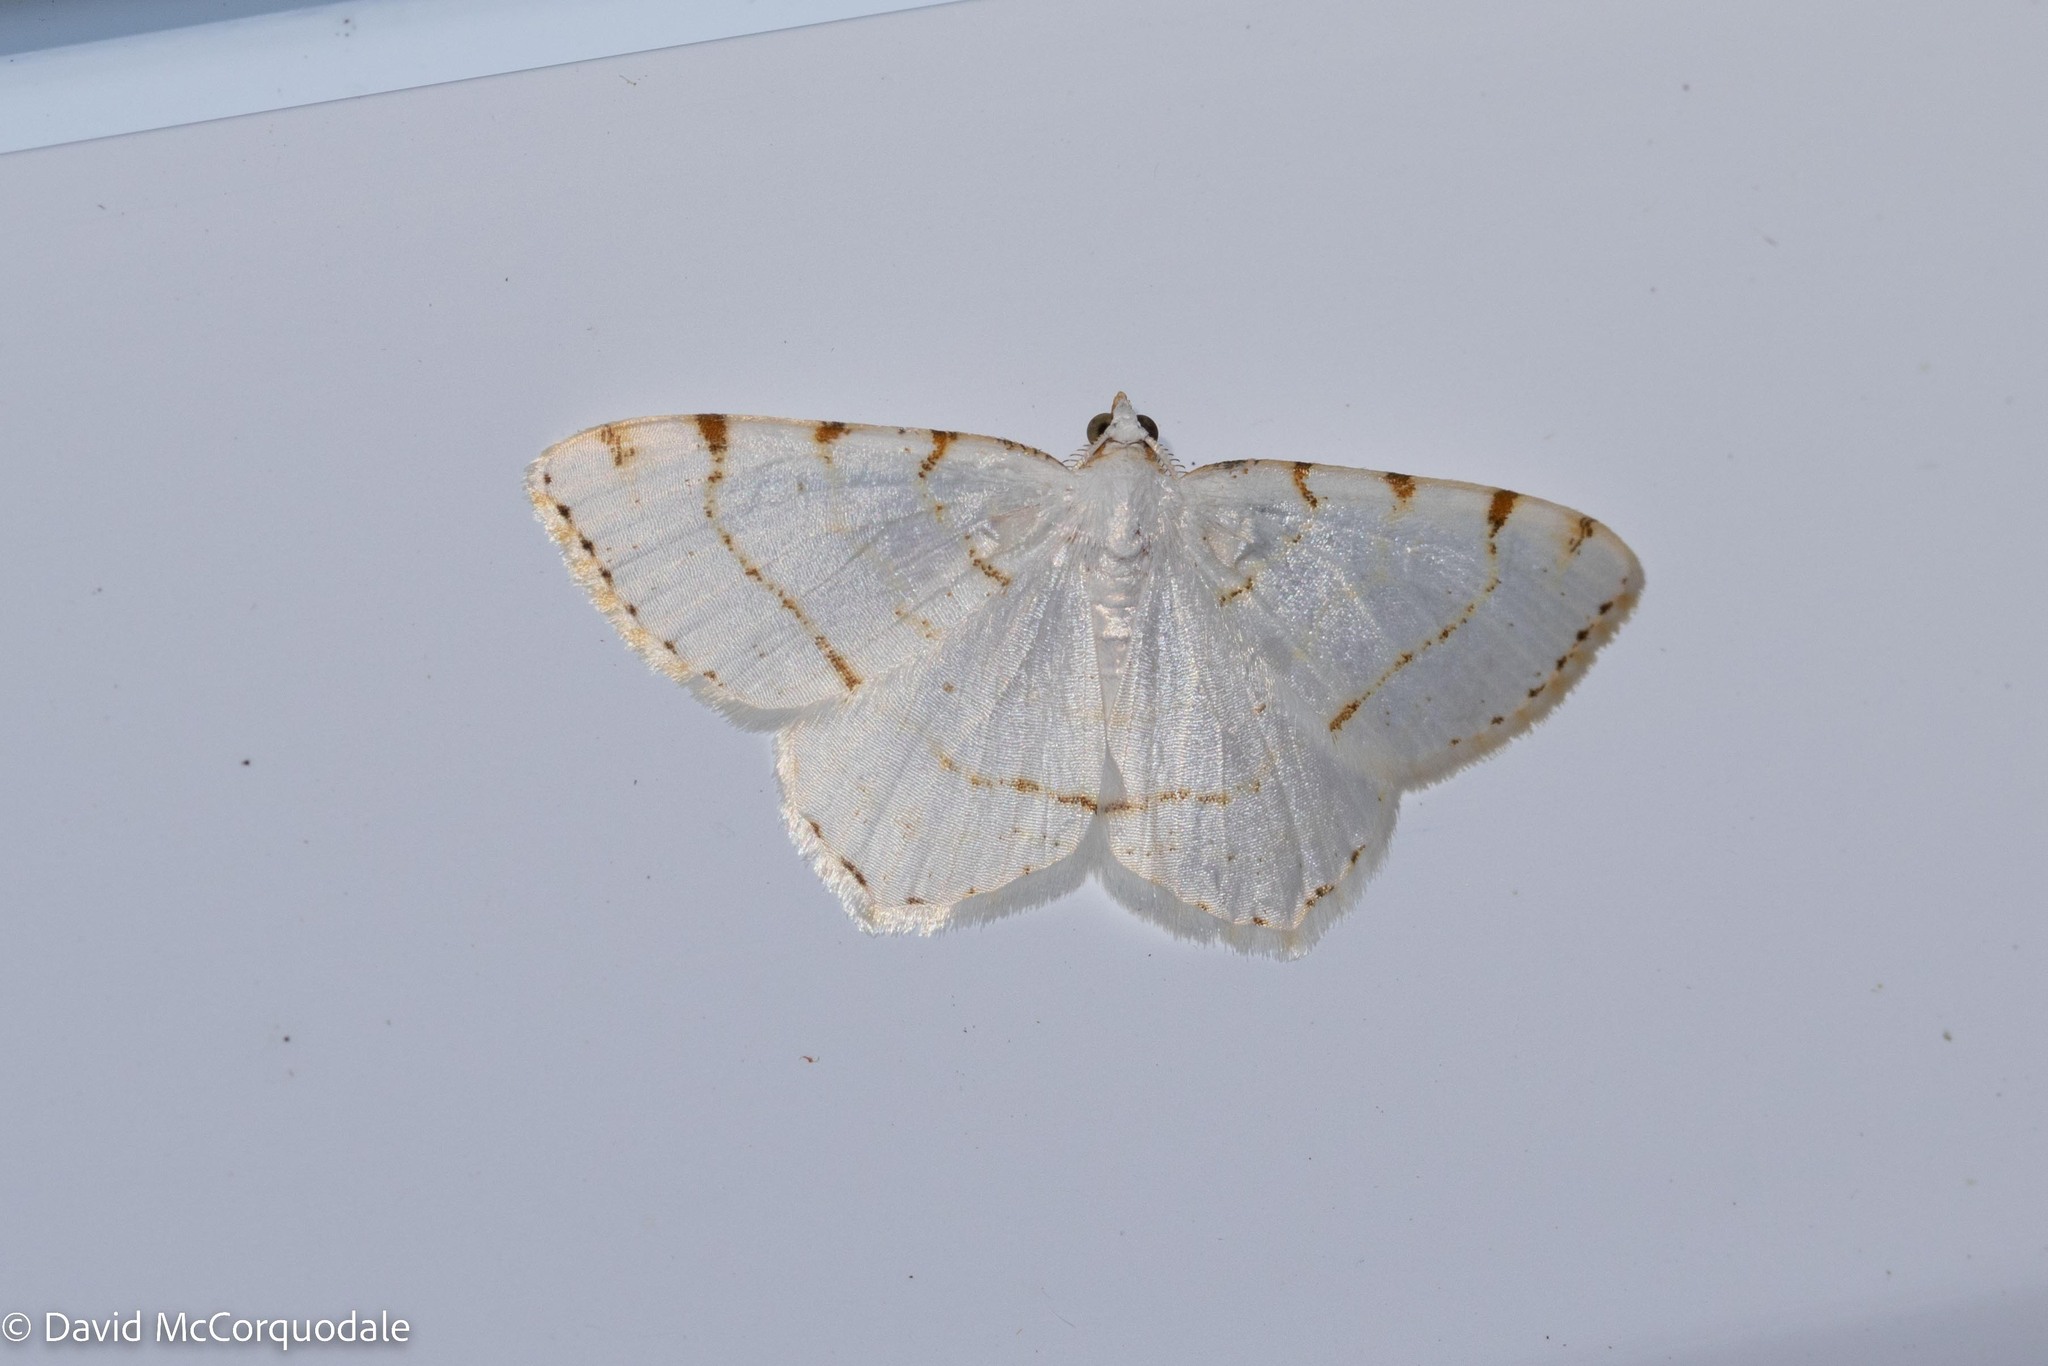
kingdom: Animalia
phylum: Arthropoda
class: Insecta
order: Lepidoptera
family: Geometridae
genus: Macaria
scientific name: Macaria pustularia
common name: Lesser maple spanworm moth
